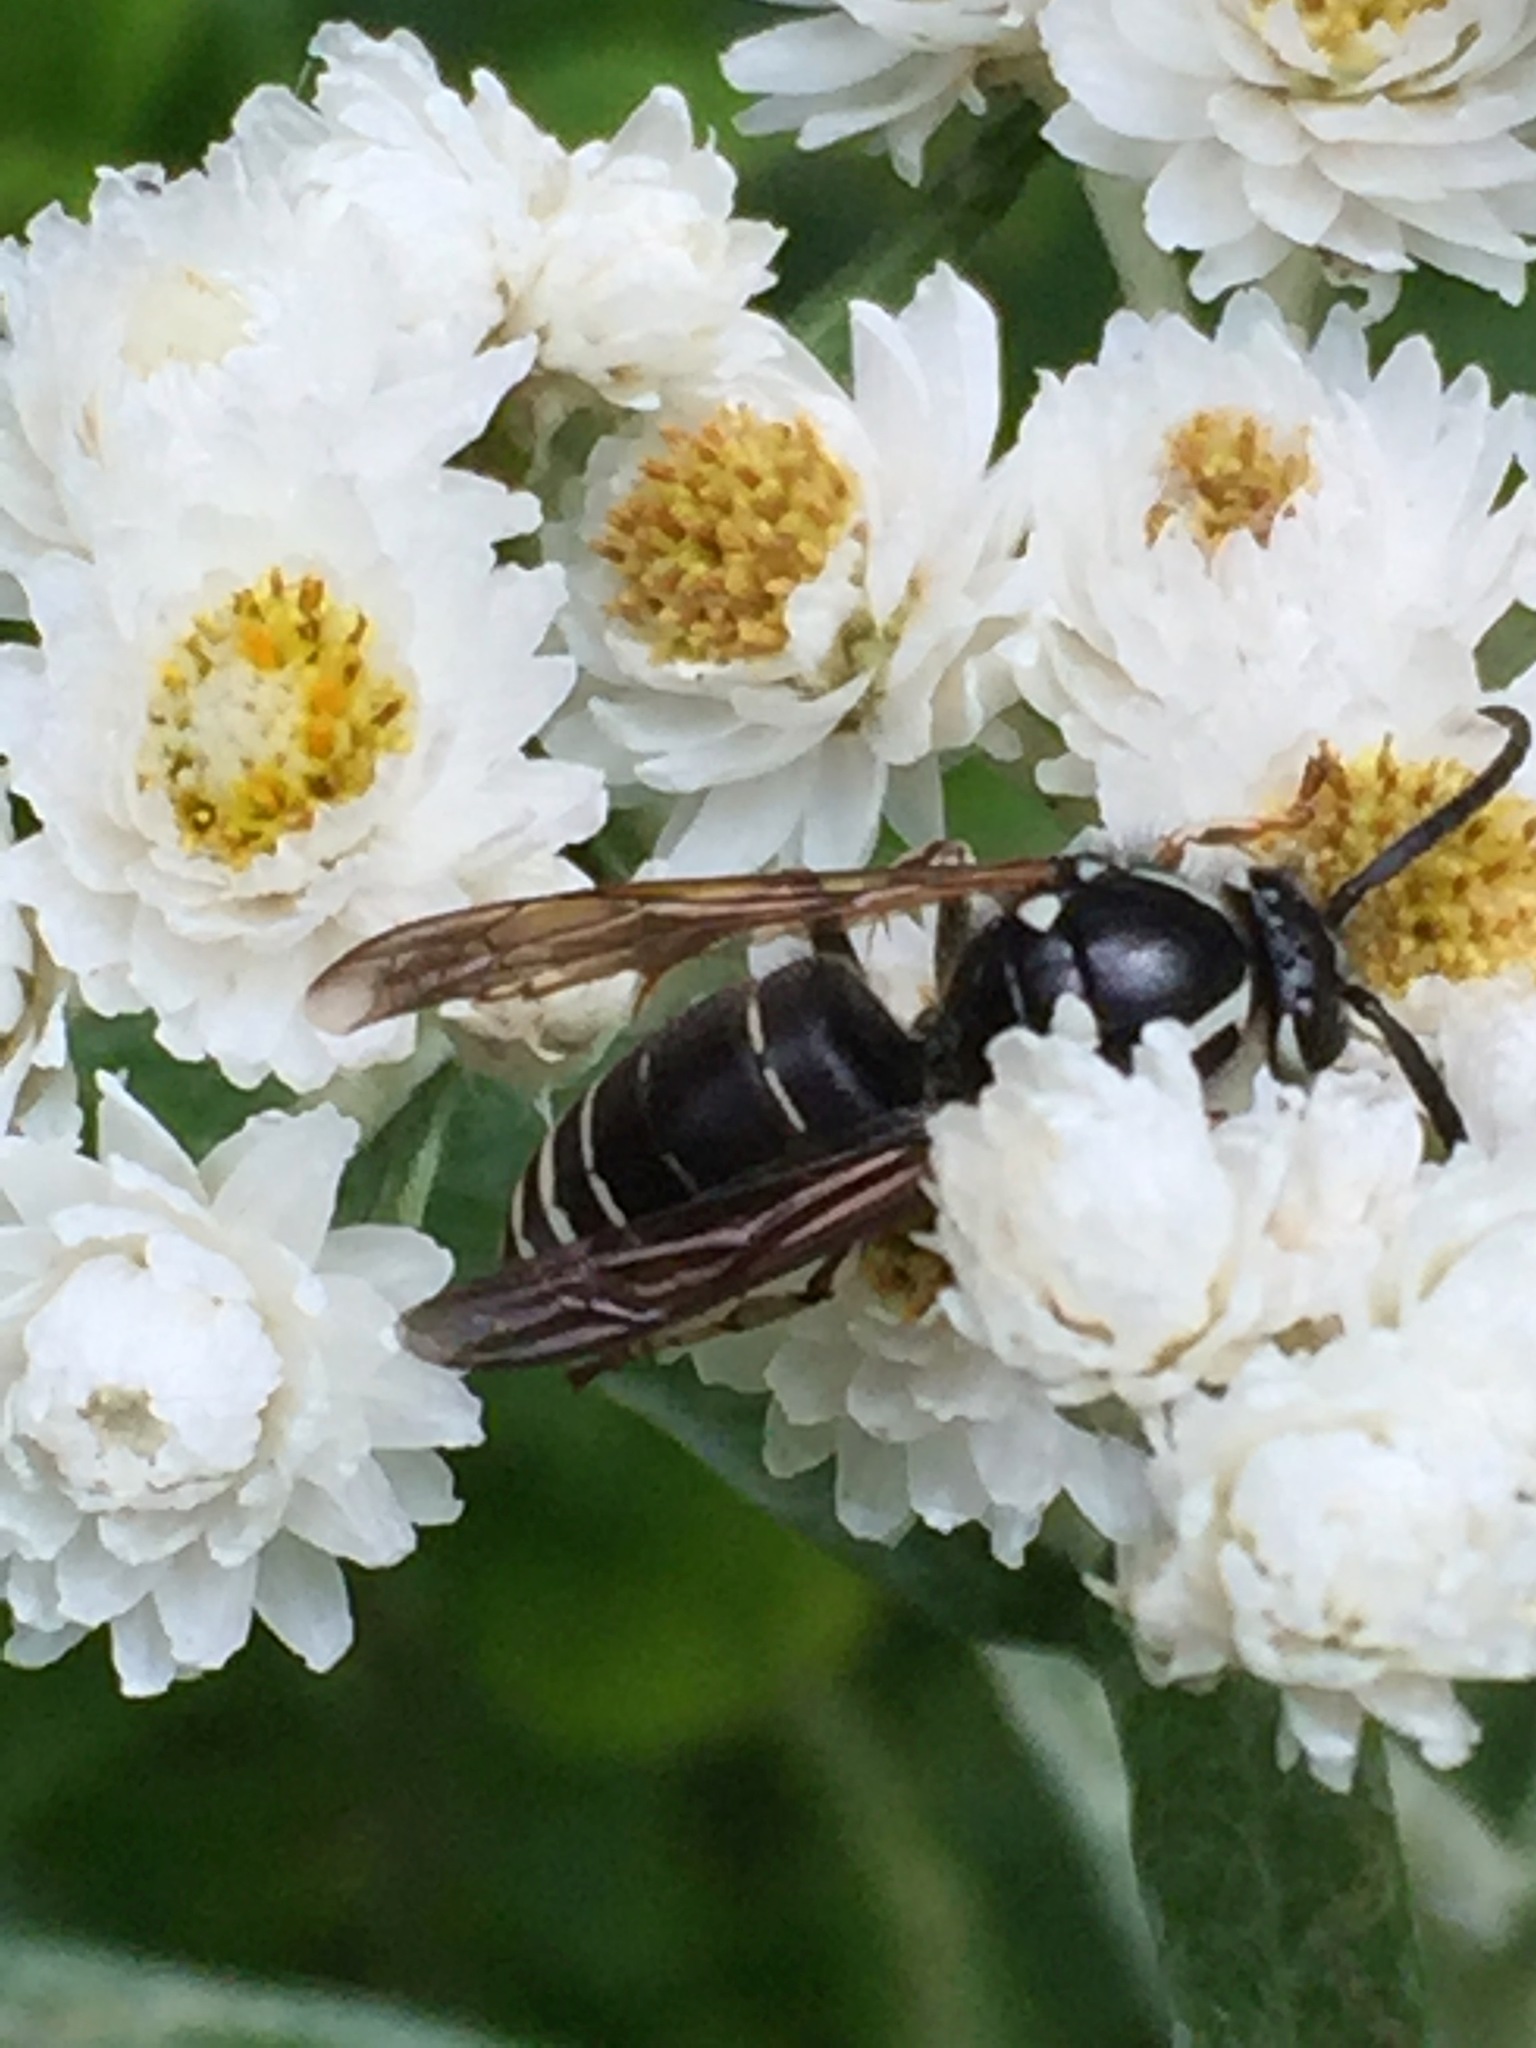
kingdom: Animalia
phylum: Arthropoda
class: Insecta
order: Hymenoptera
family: Vespidae
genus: Dolichovespula
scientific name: Dolichovespula adulterina
